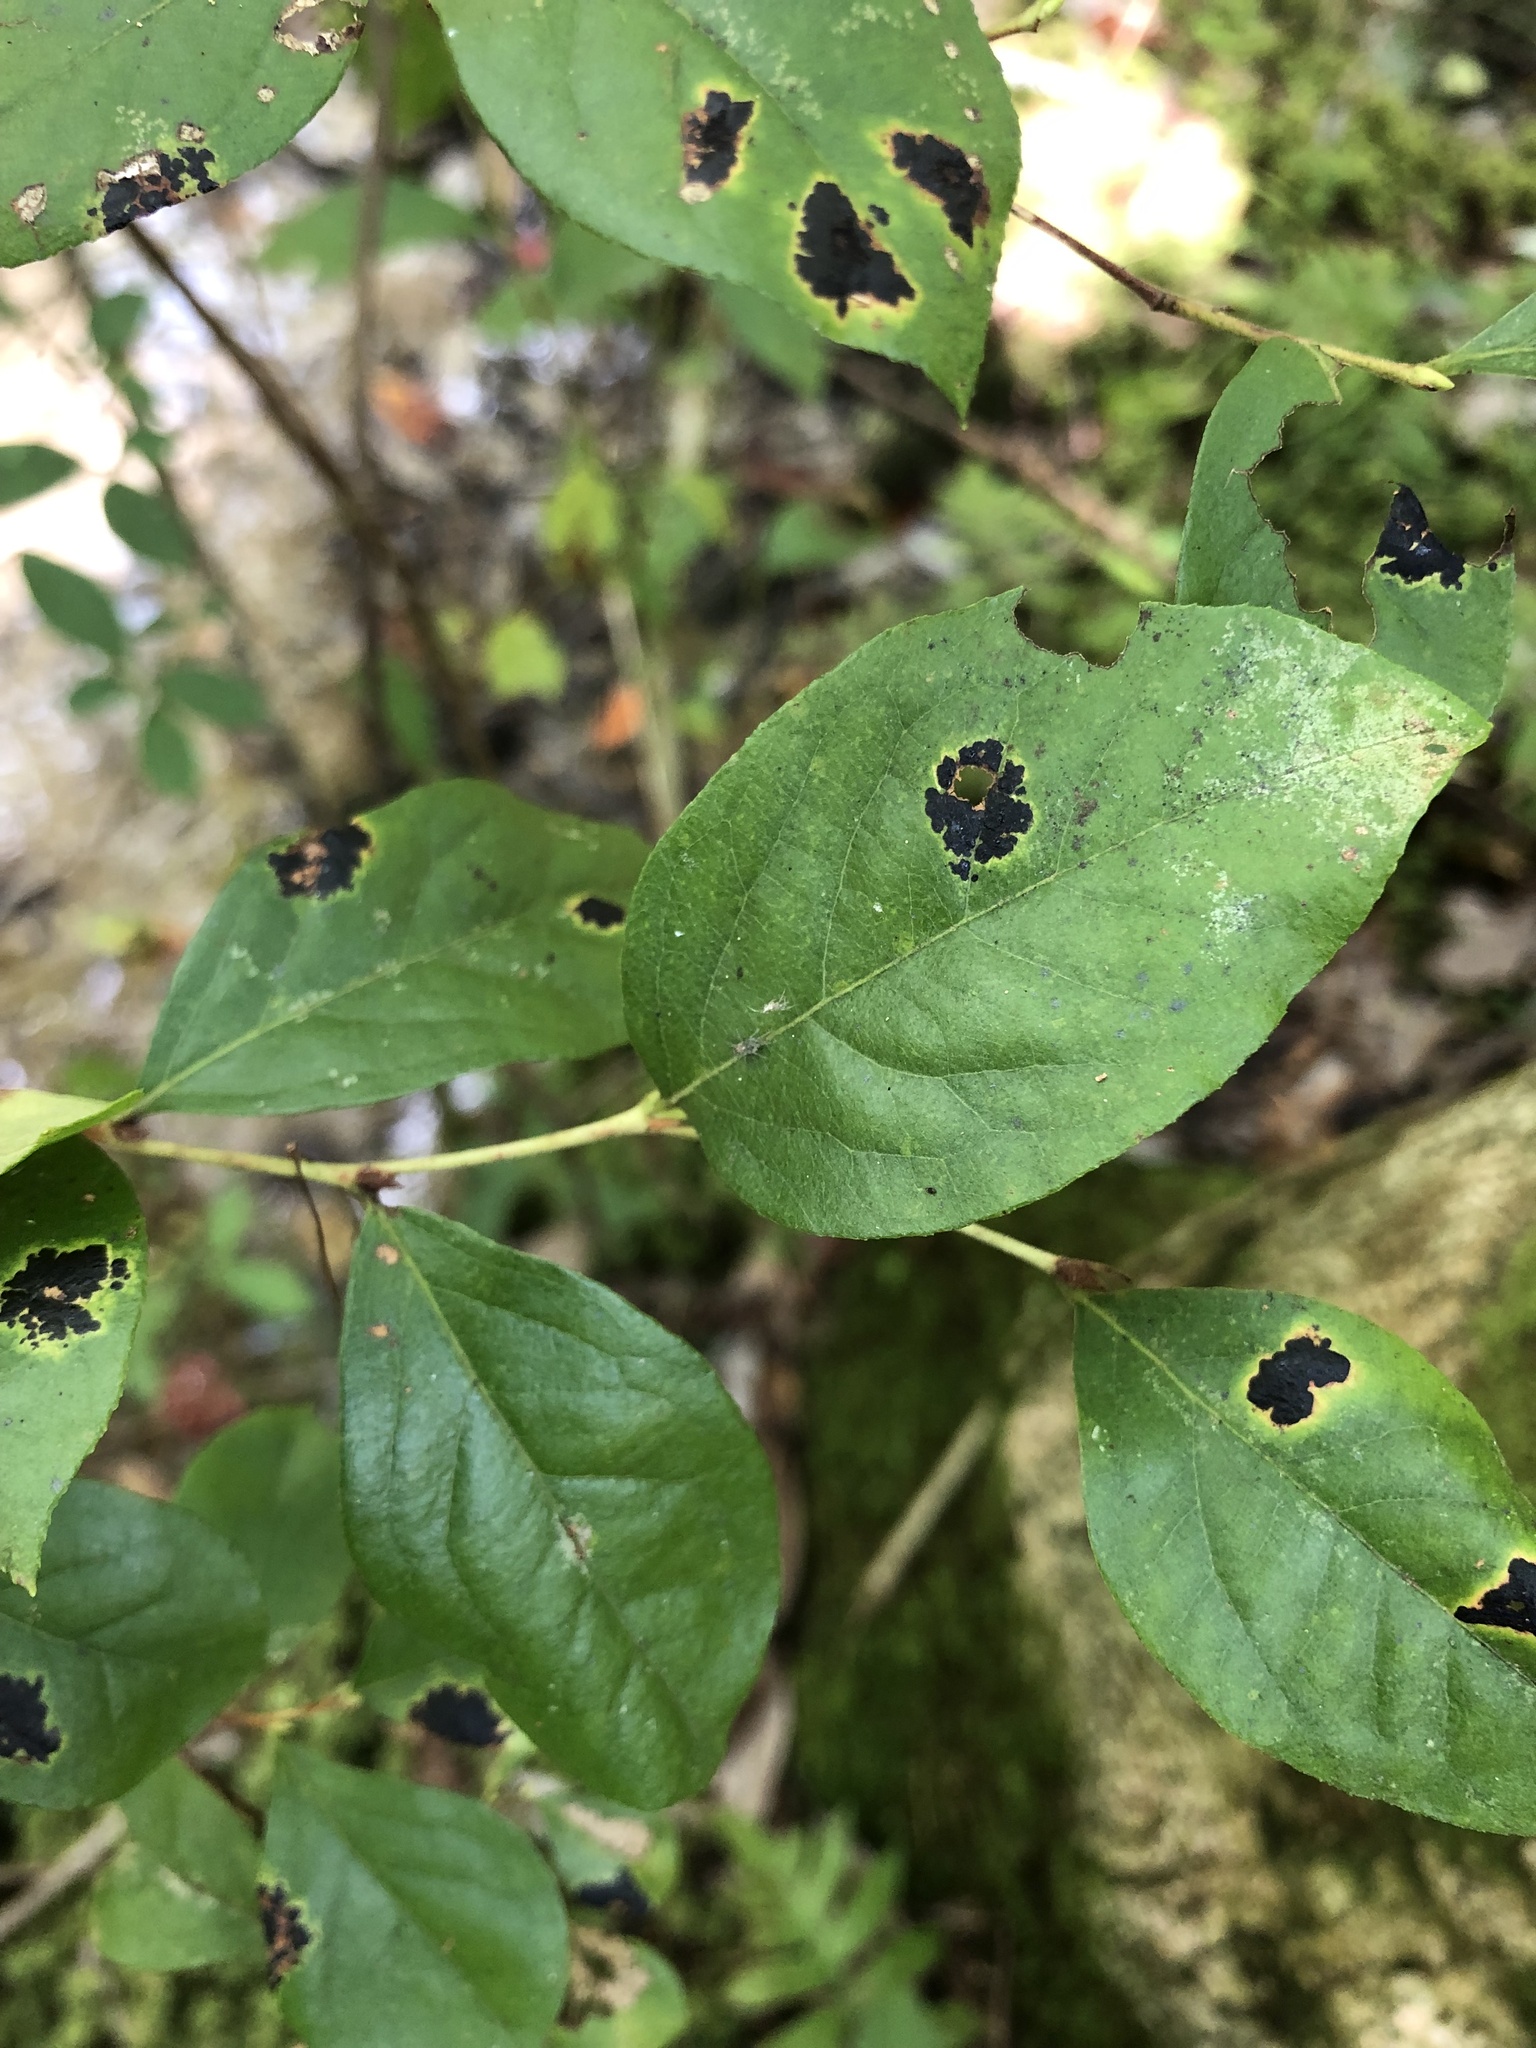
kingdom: Plantae
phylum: Tracheophyta
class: Magnoliopsida
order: Ericales
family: Ericaceae
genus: Lyonia
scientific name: Lyonia ligustrina
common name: Maleberry
